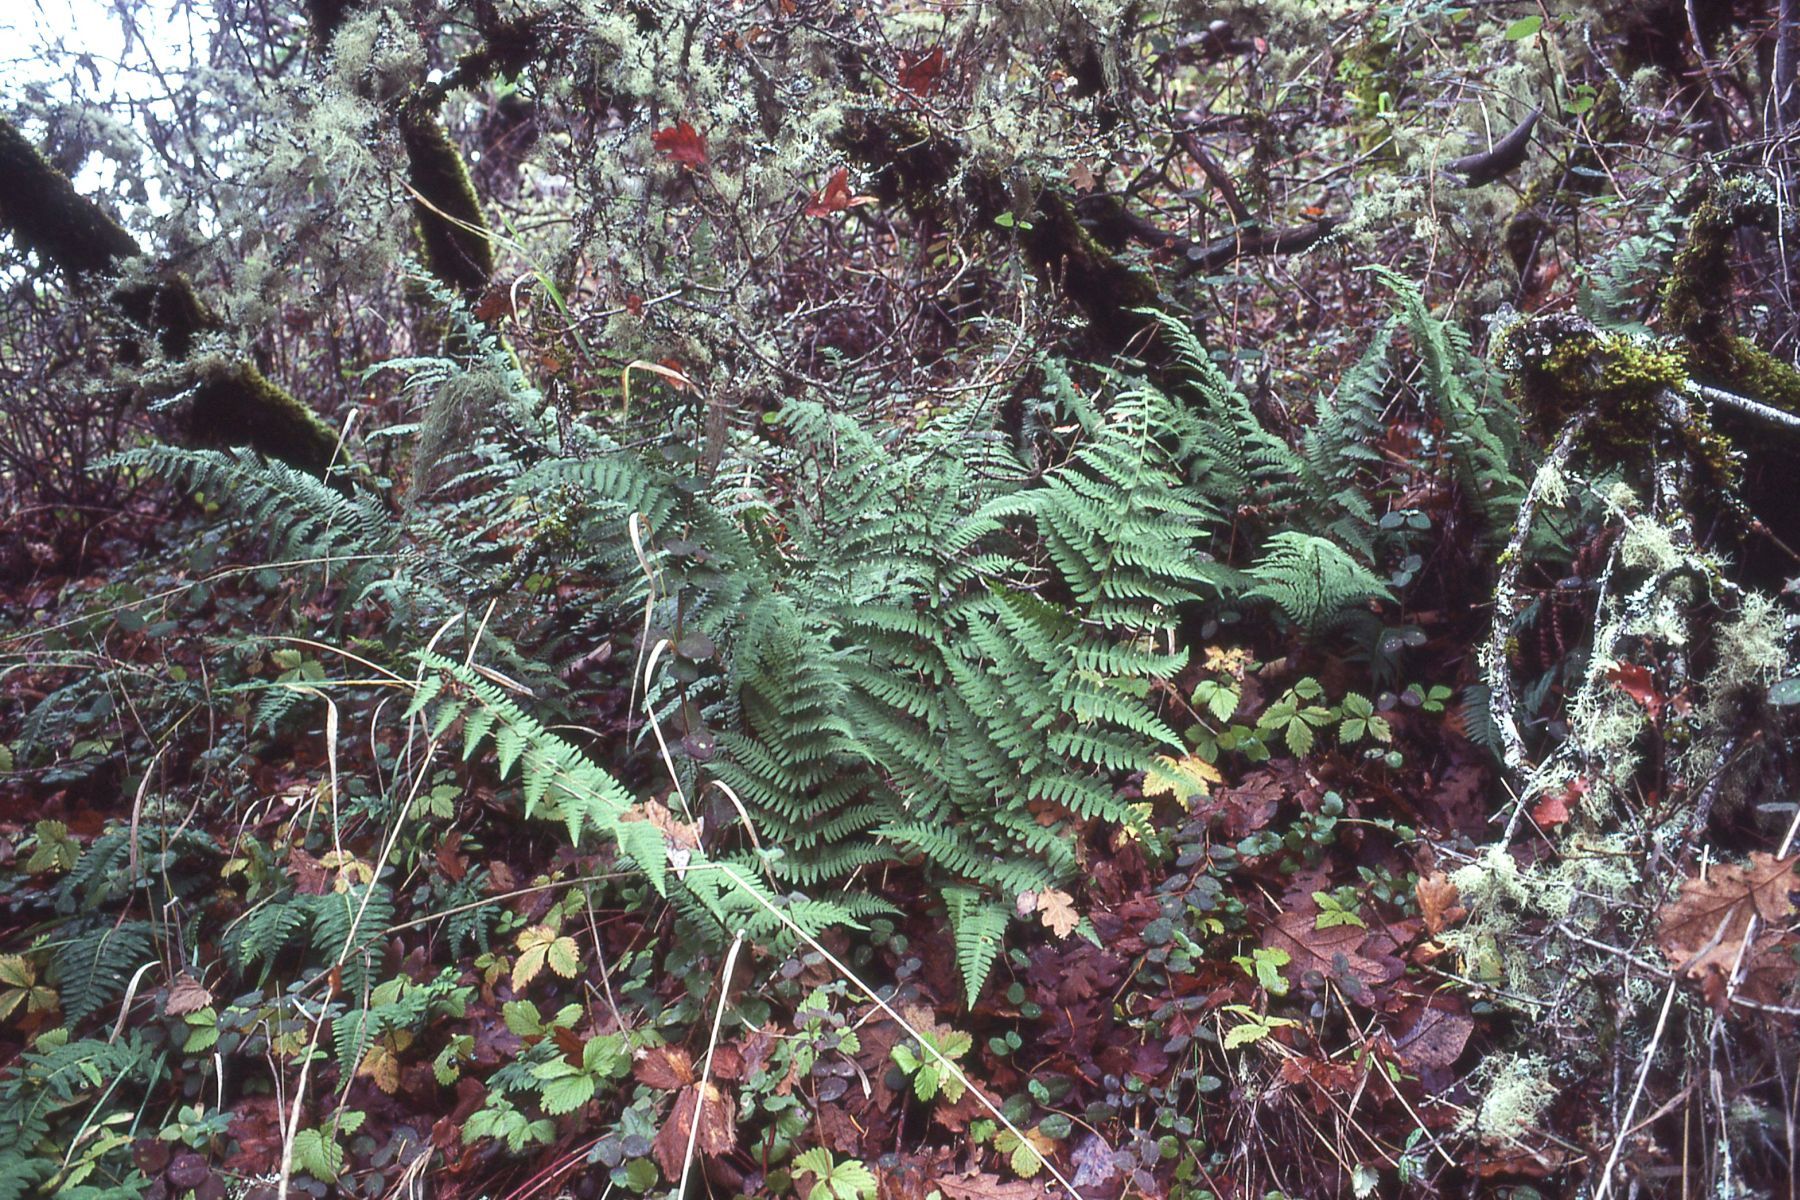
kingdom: Plantae
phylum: Tracheophyta
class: Polypodiopsida
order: Polypodiales
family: Dryopteridaceae
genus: Dryopteris
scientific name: Dryopteris arguta
